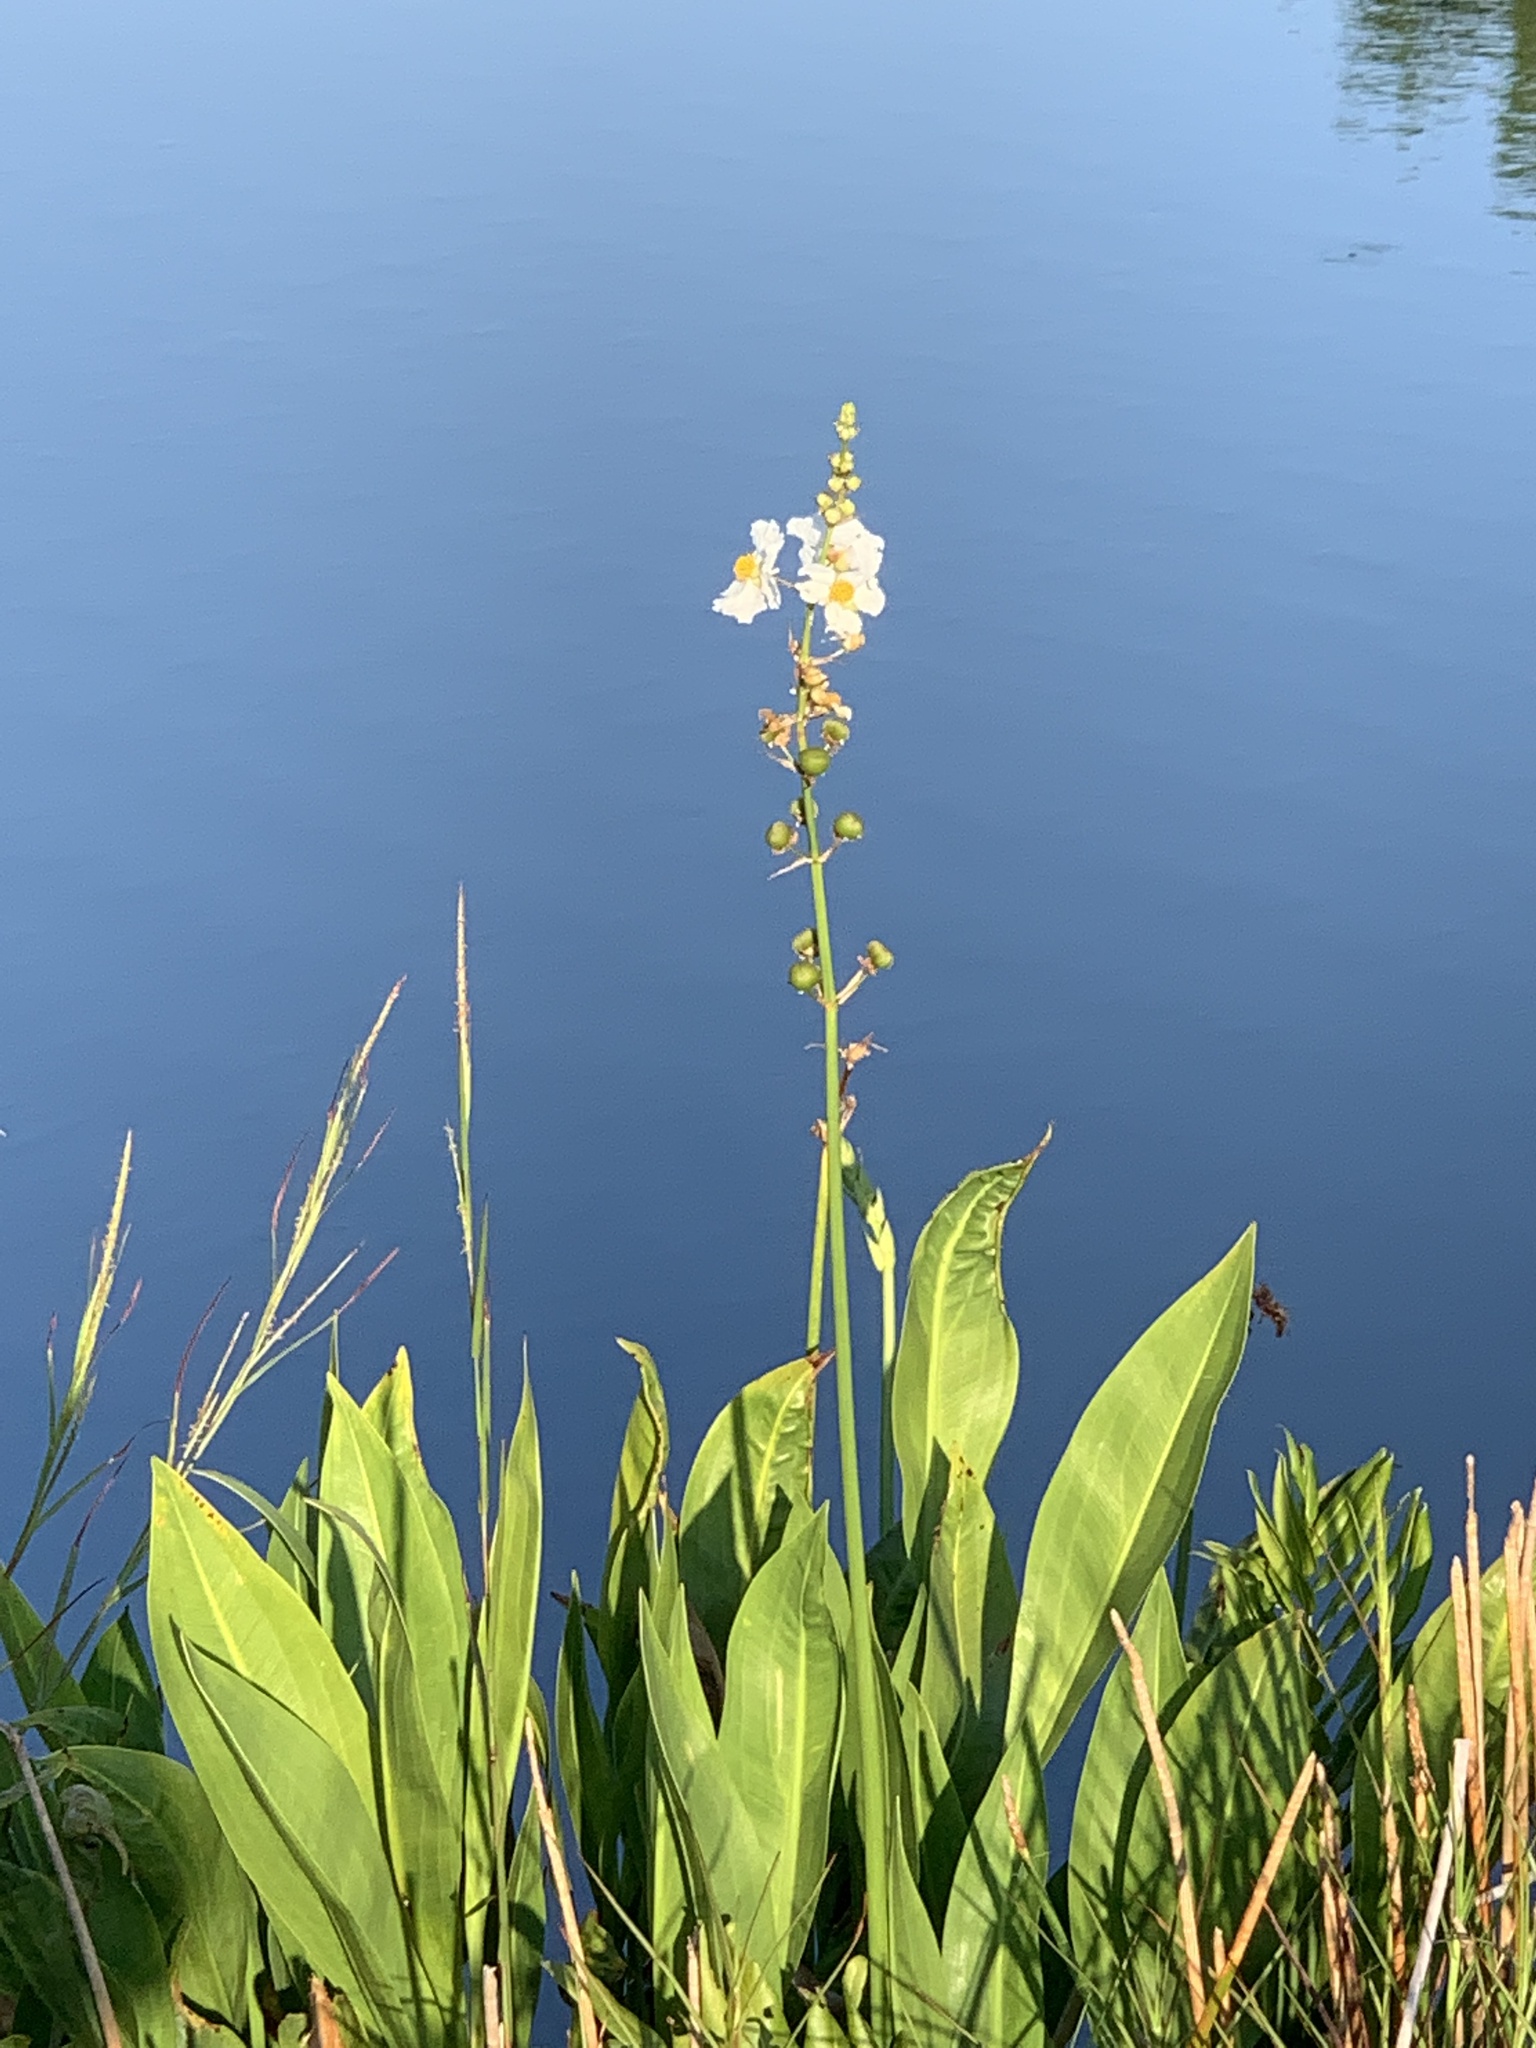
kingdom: Plantae
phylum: Tracheophyta
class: Liliopsida
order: Alismatales
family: Alismataceae
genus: Sagittaria
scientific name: Sagittaria lancifolia
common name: Lance-leaf arrowhead
